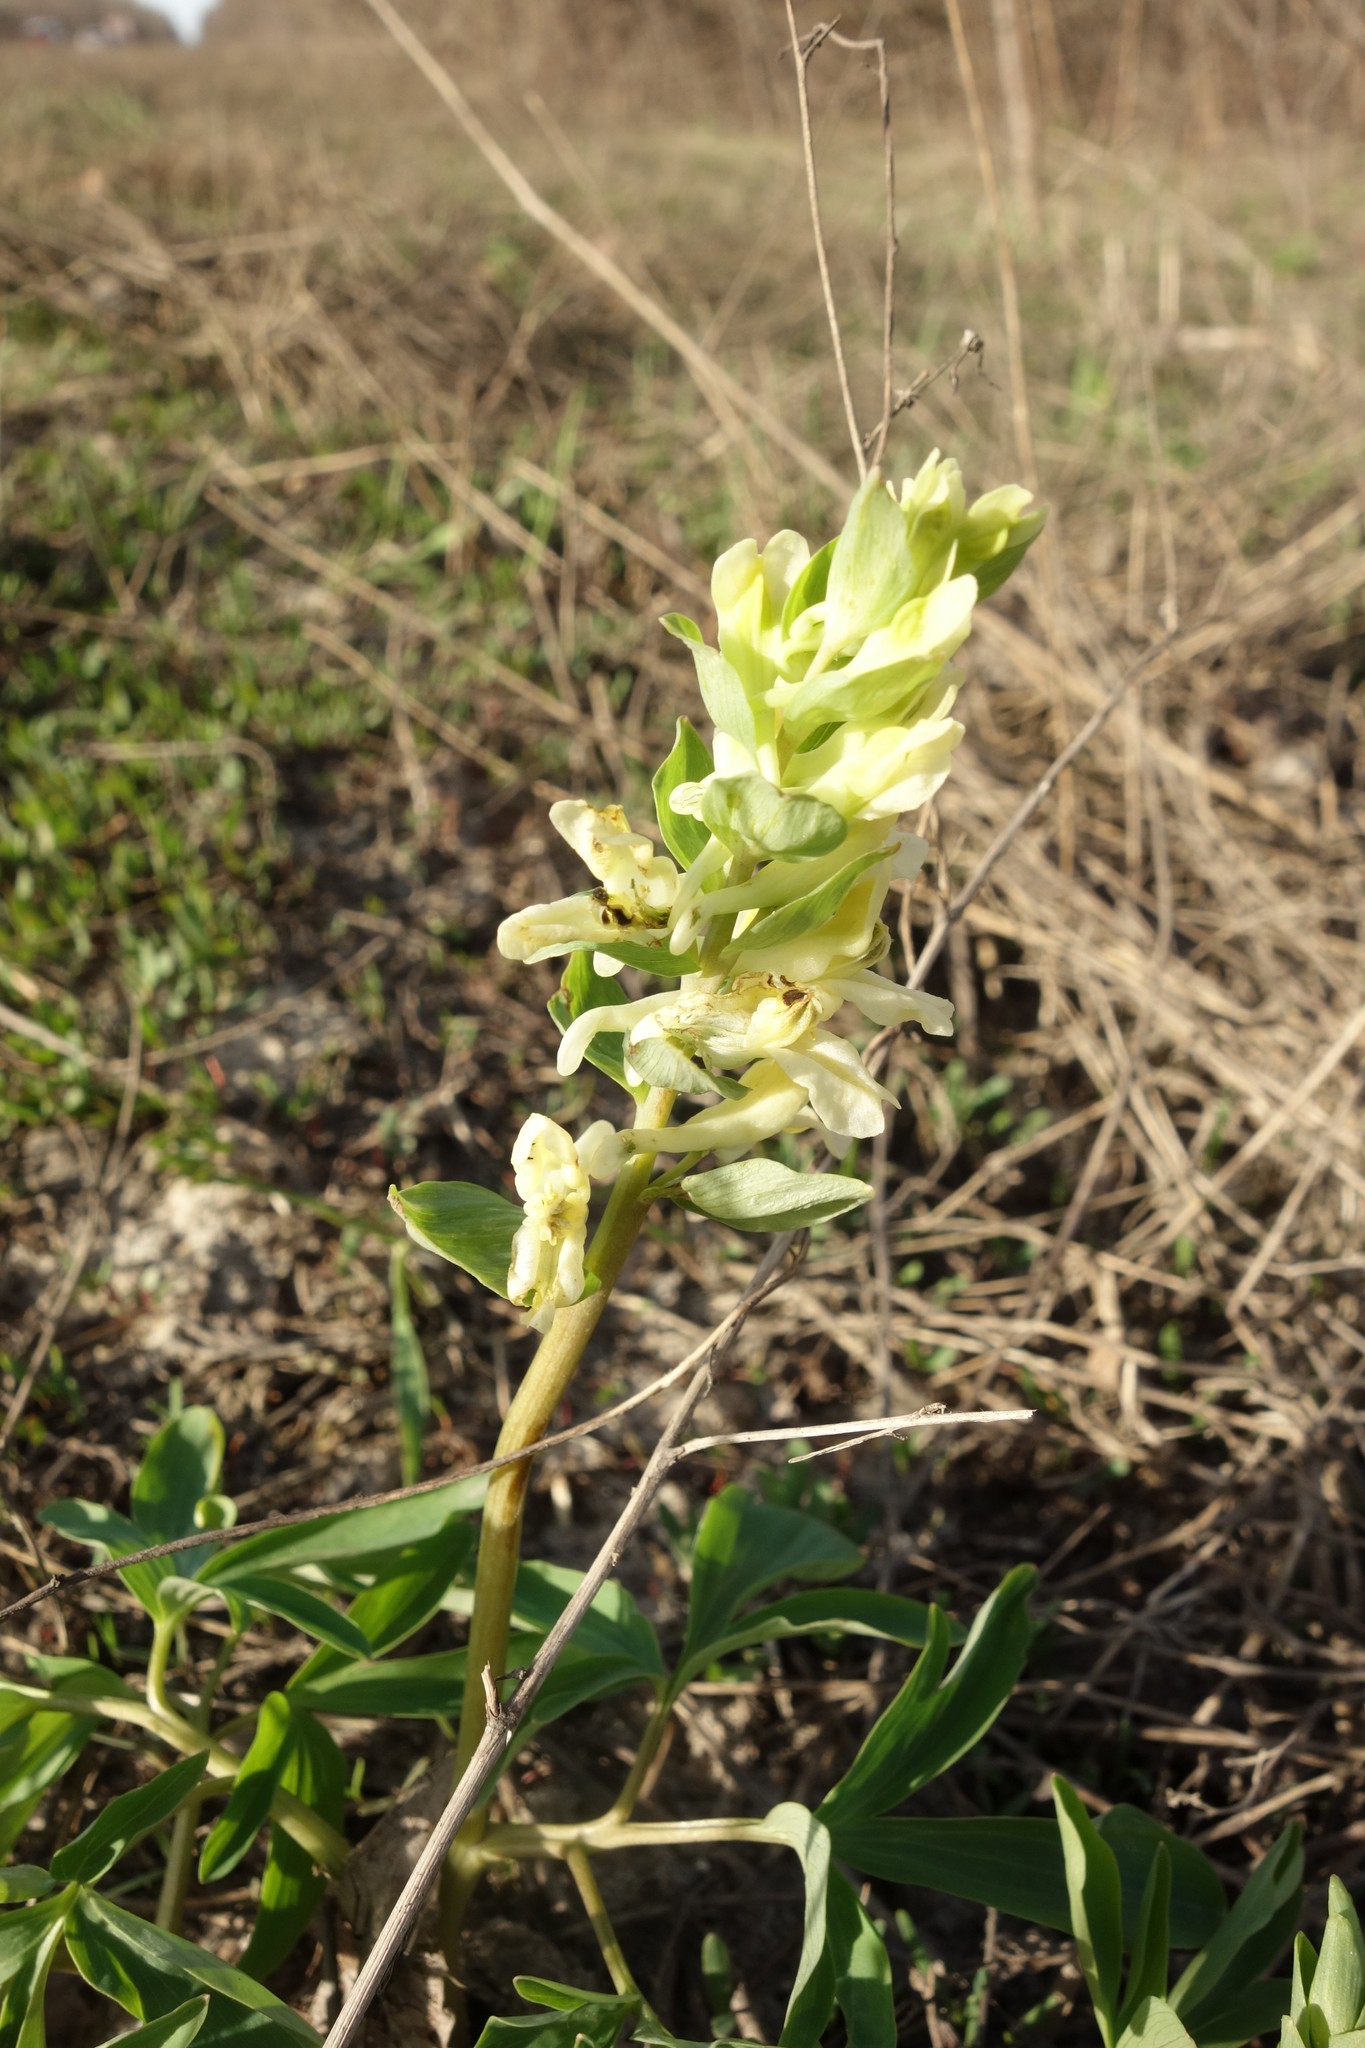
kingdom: Plantae
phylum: Tracheophyta
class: Magnoliopsida
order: Ranunculales
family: Papaveraceae
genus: Corydalis
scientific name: Corydalis cava
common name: Hollowroot
